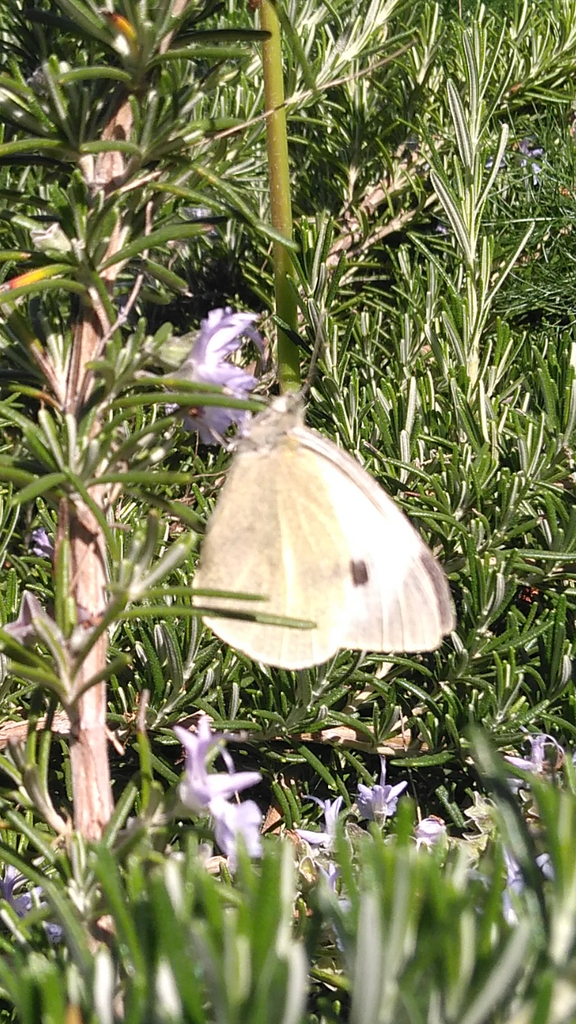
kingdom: Animalia
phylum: Arthropoda
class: Insecta
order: Lepidoptera
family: Pieridae
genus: Pieris
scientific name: Pieris brassicae
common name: Large white
